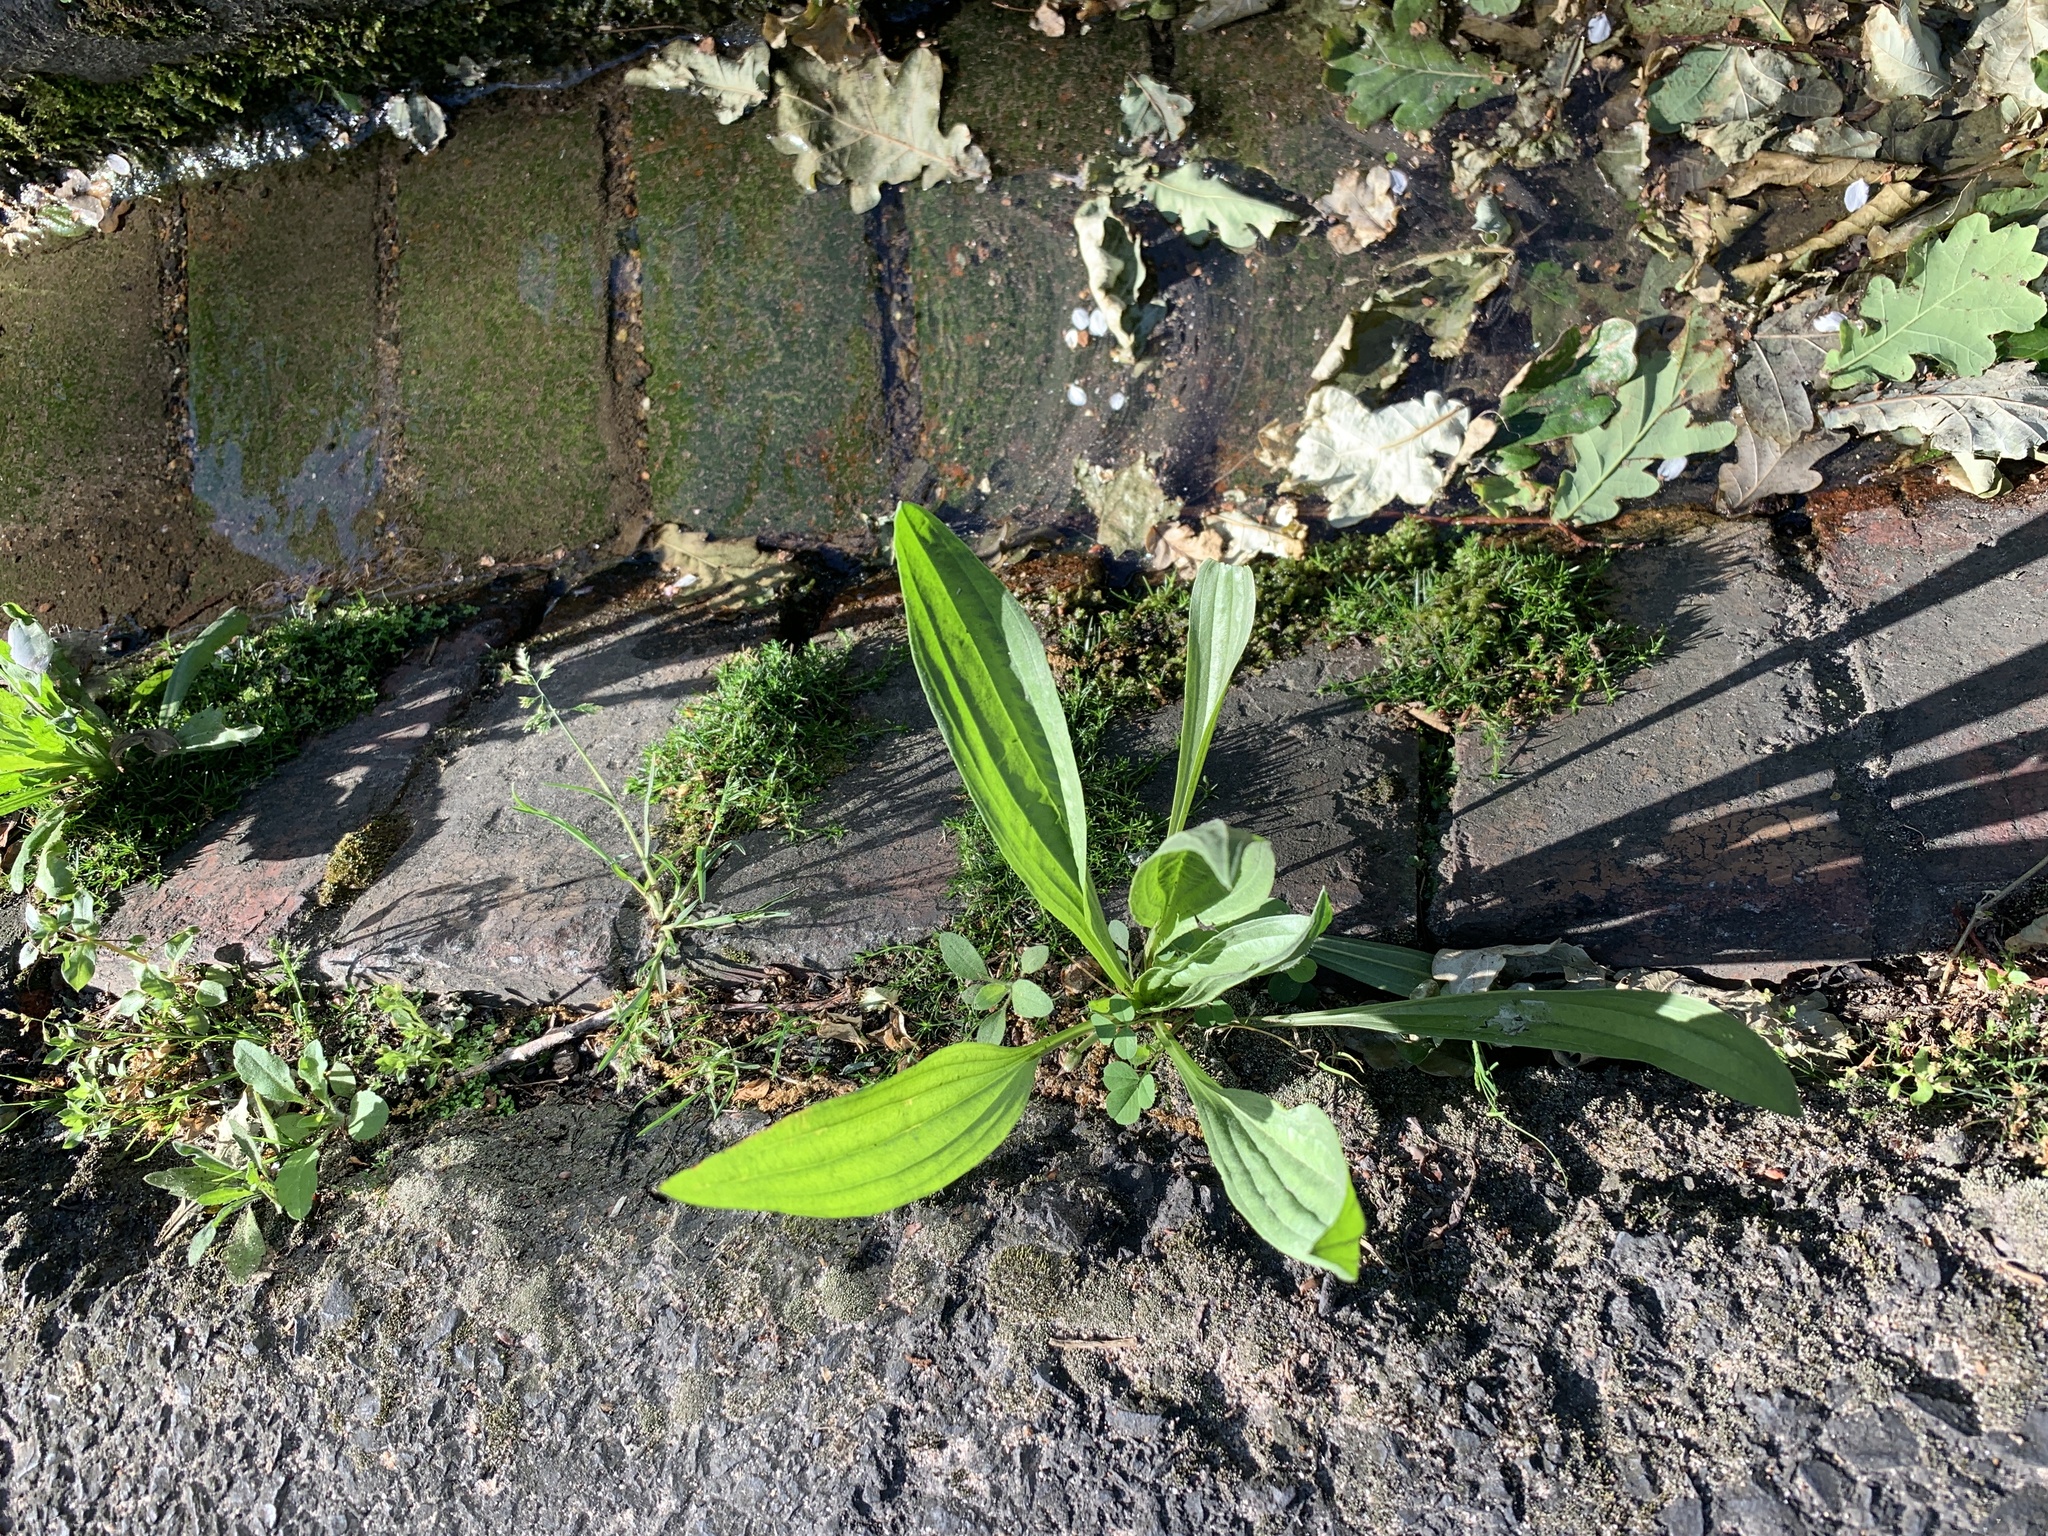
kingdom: Plantae
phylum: Tracheophyta
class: Magnoliopsida
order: Lamiales
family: Plantaginaceae
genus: Plantago
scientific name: Plantago lanceolata
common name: Ribwort plantain
